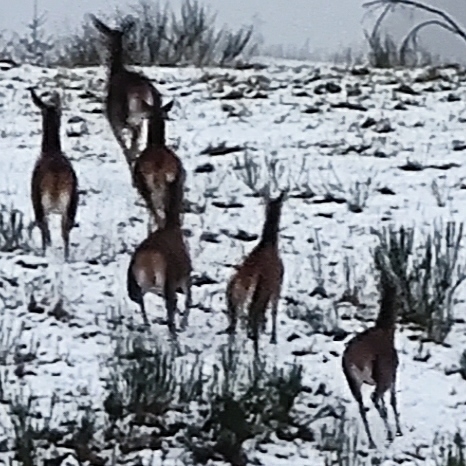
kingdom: Animalia
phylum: Chordata
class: Mammalia
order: Artiodactyla
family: Cervidae
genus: Cervus
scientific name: Cervus elaphus
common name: Red deer
